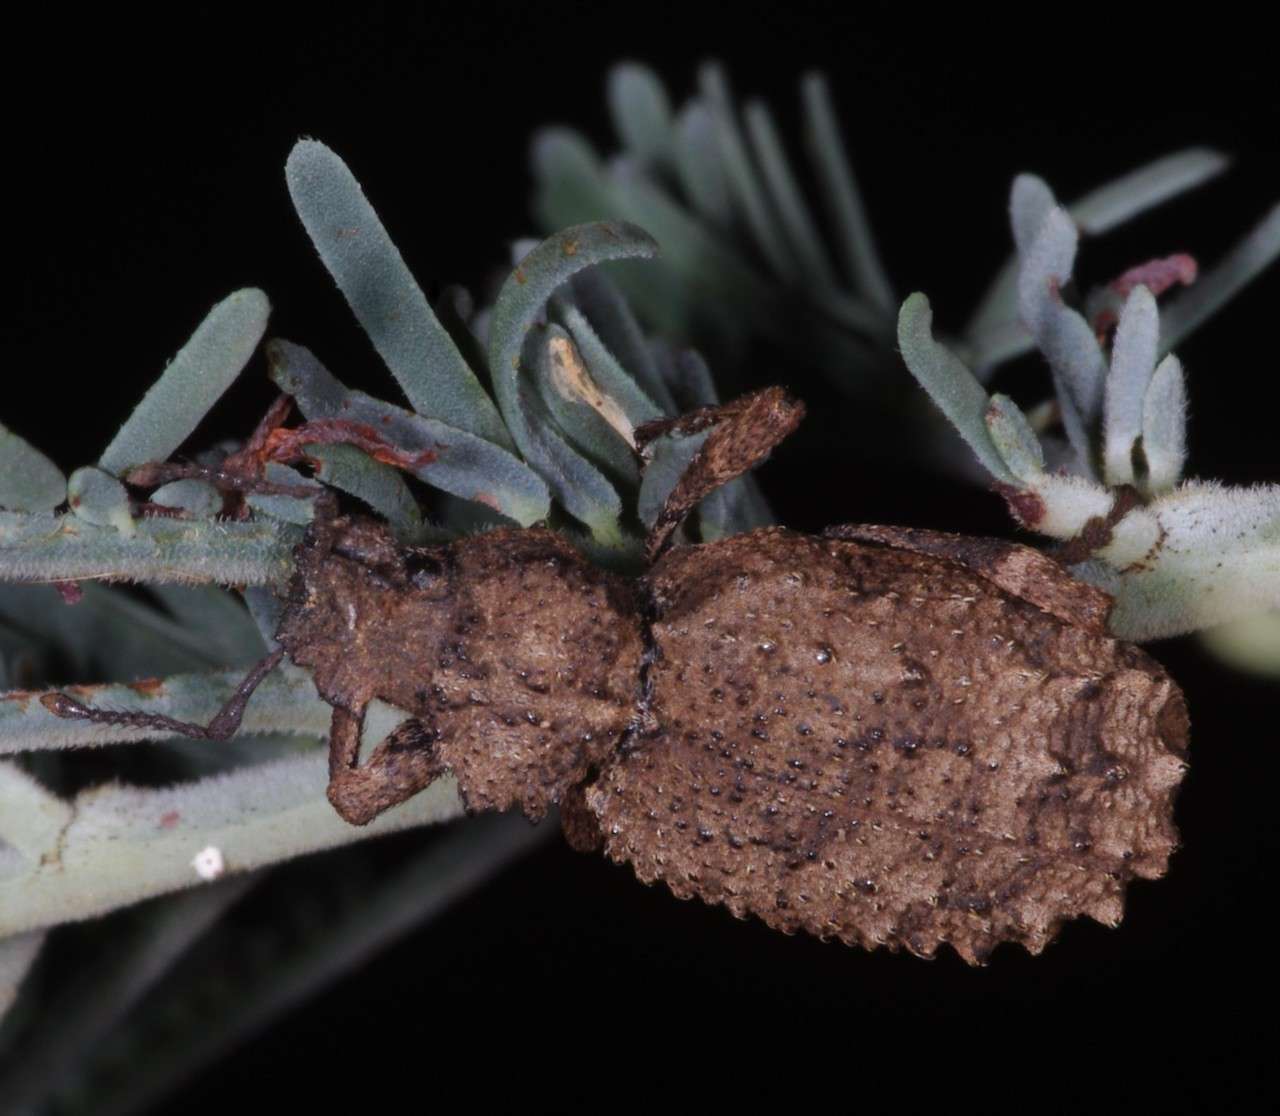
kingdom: Animalia
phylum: Arthropoda
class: Insecta
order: Coleoptera
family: Curculionidae
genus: Acantholophus
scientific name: Acantholophus planicollis
